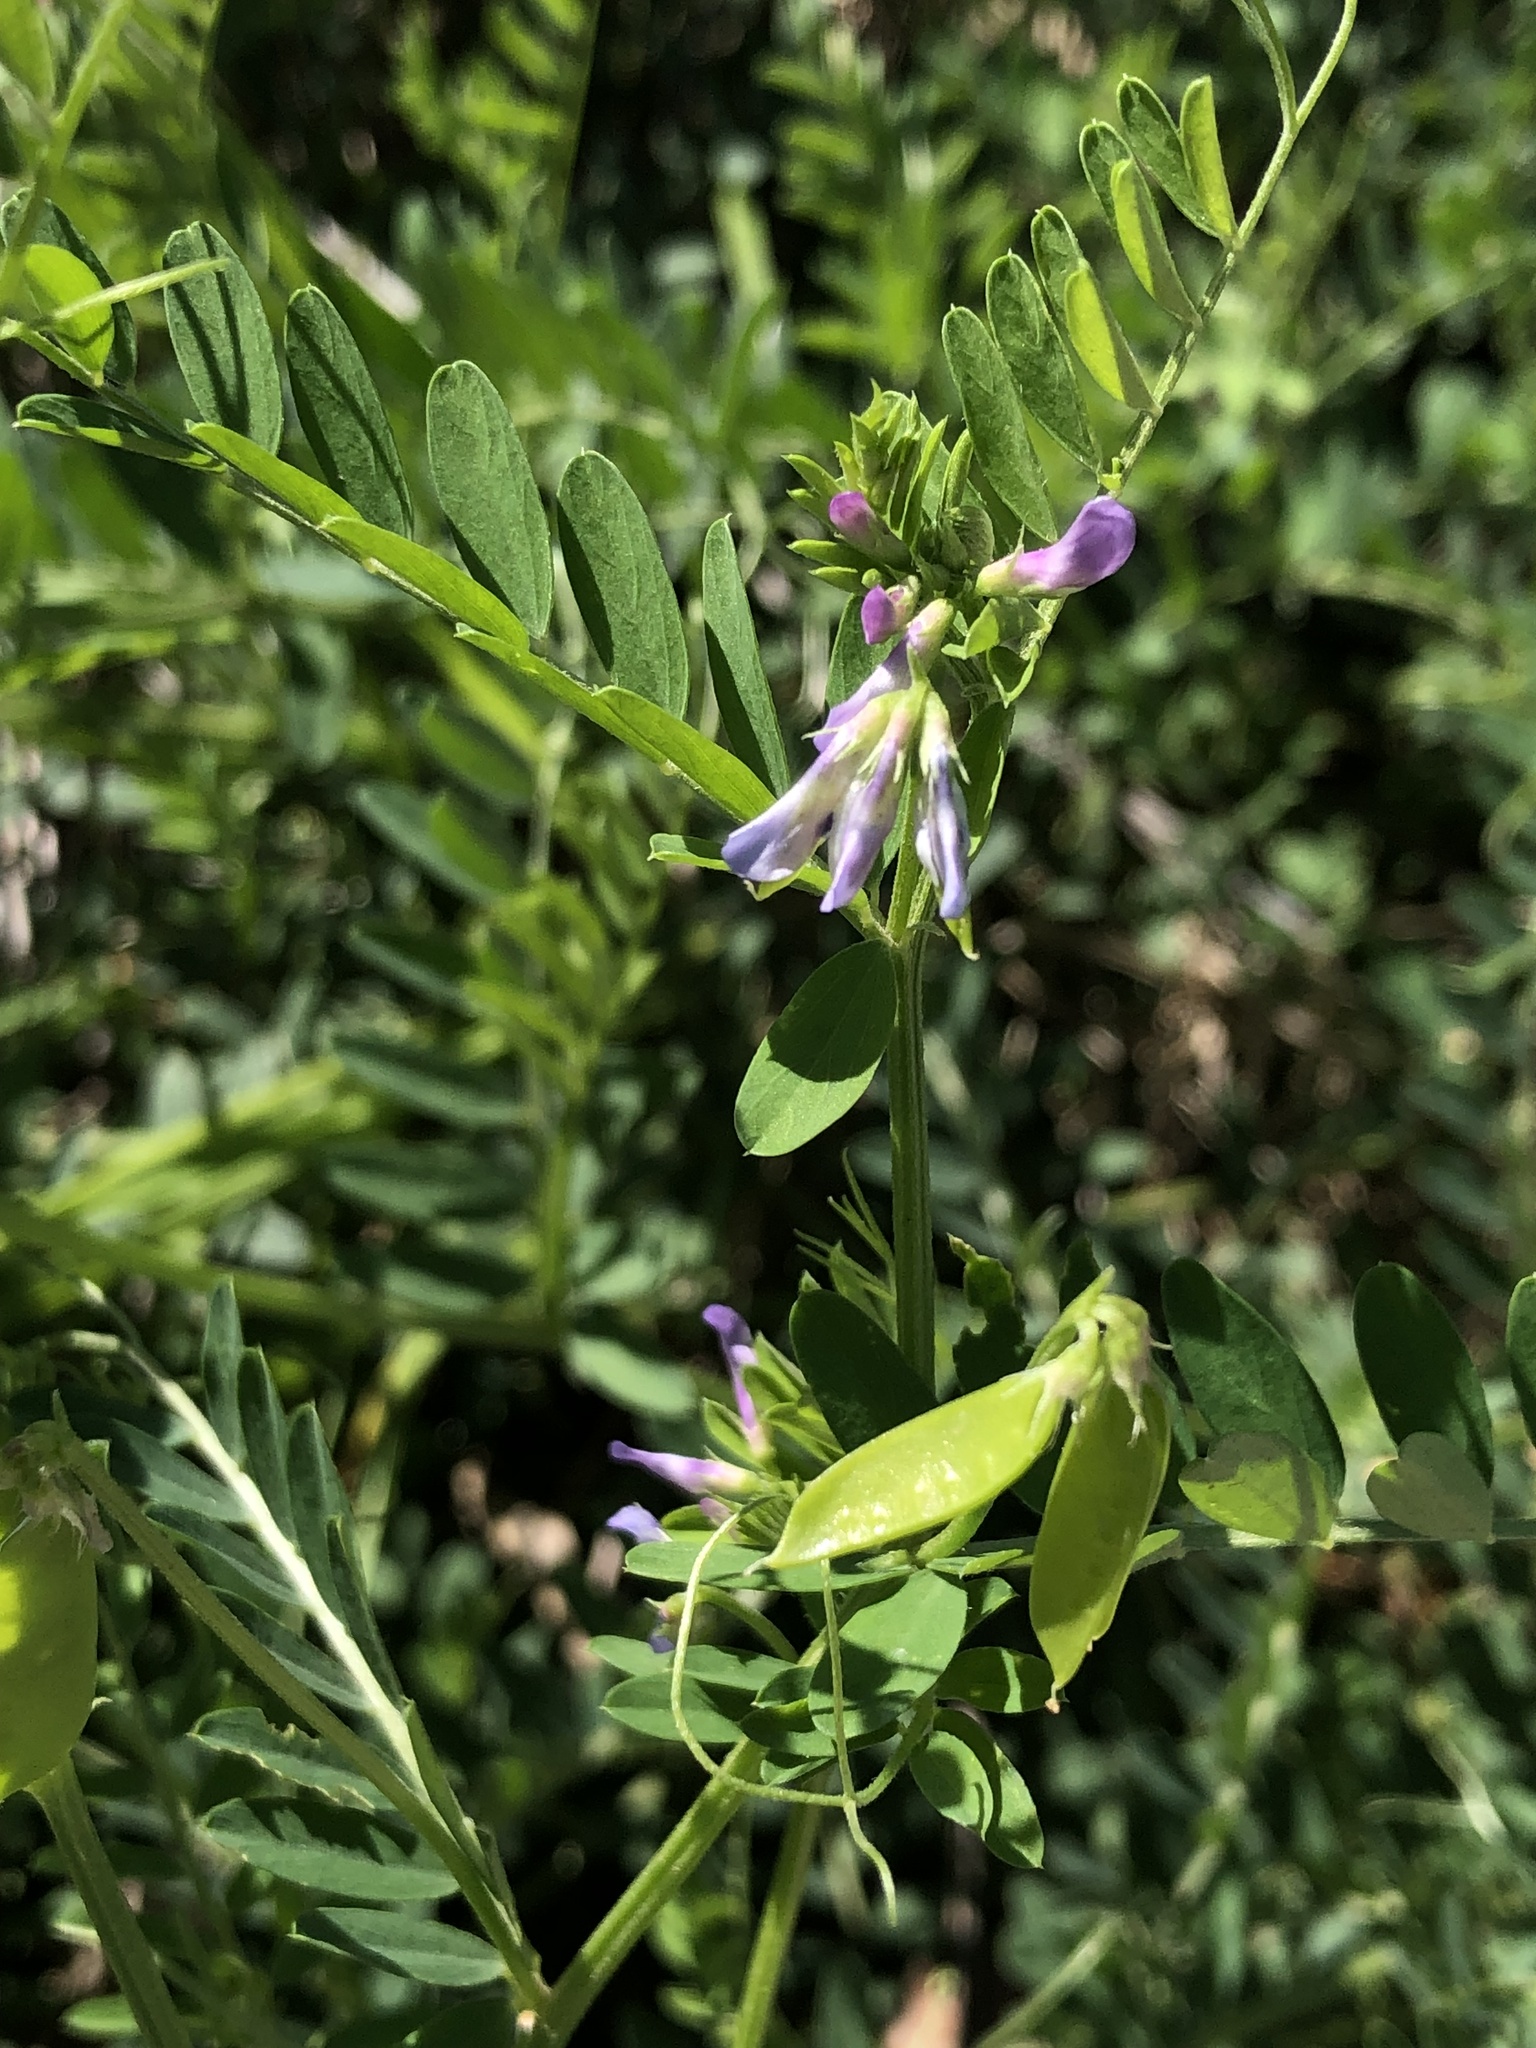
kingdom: Plantae
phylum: Tracheophyta
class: Magnoliopsida
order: Fabales
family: Fabaceae
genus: Vicia
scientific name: Vicia ludoviciana
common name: Louisiana vetch
